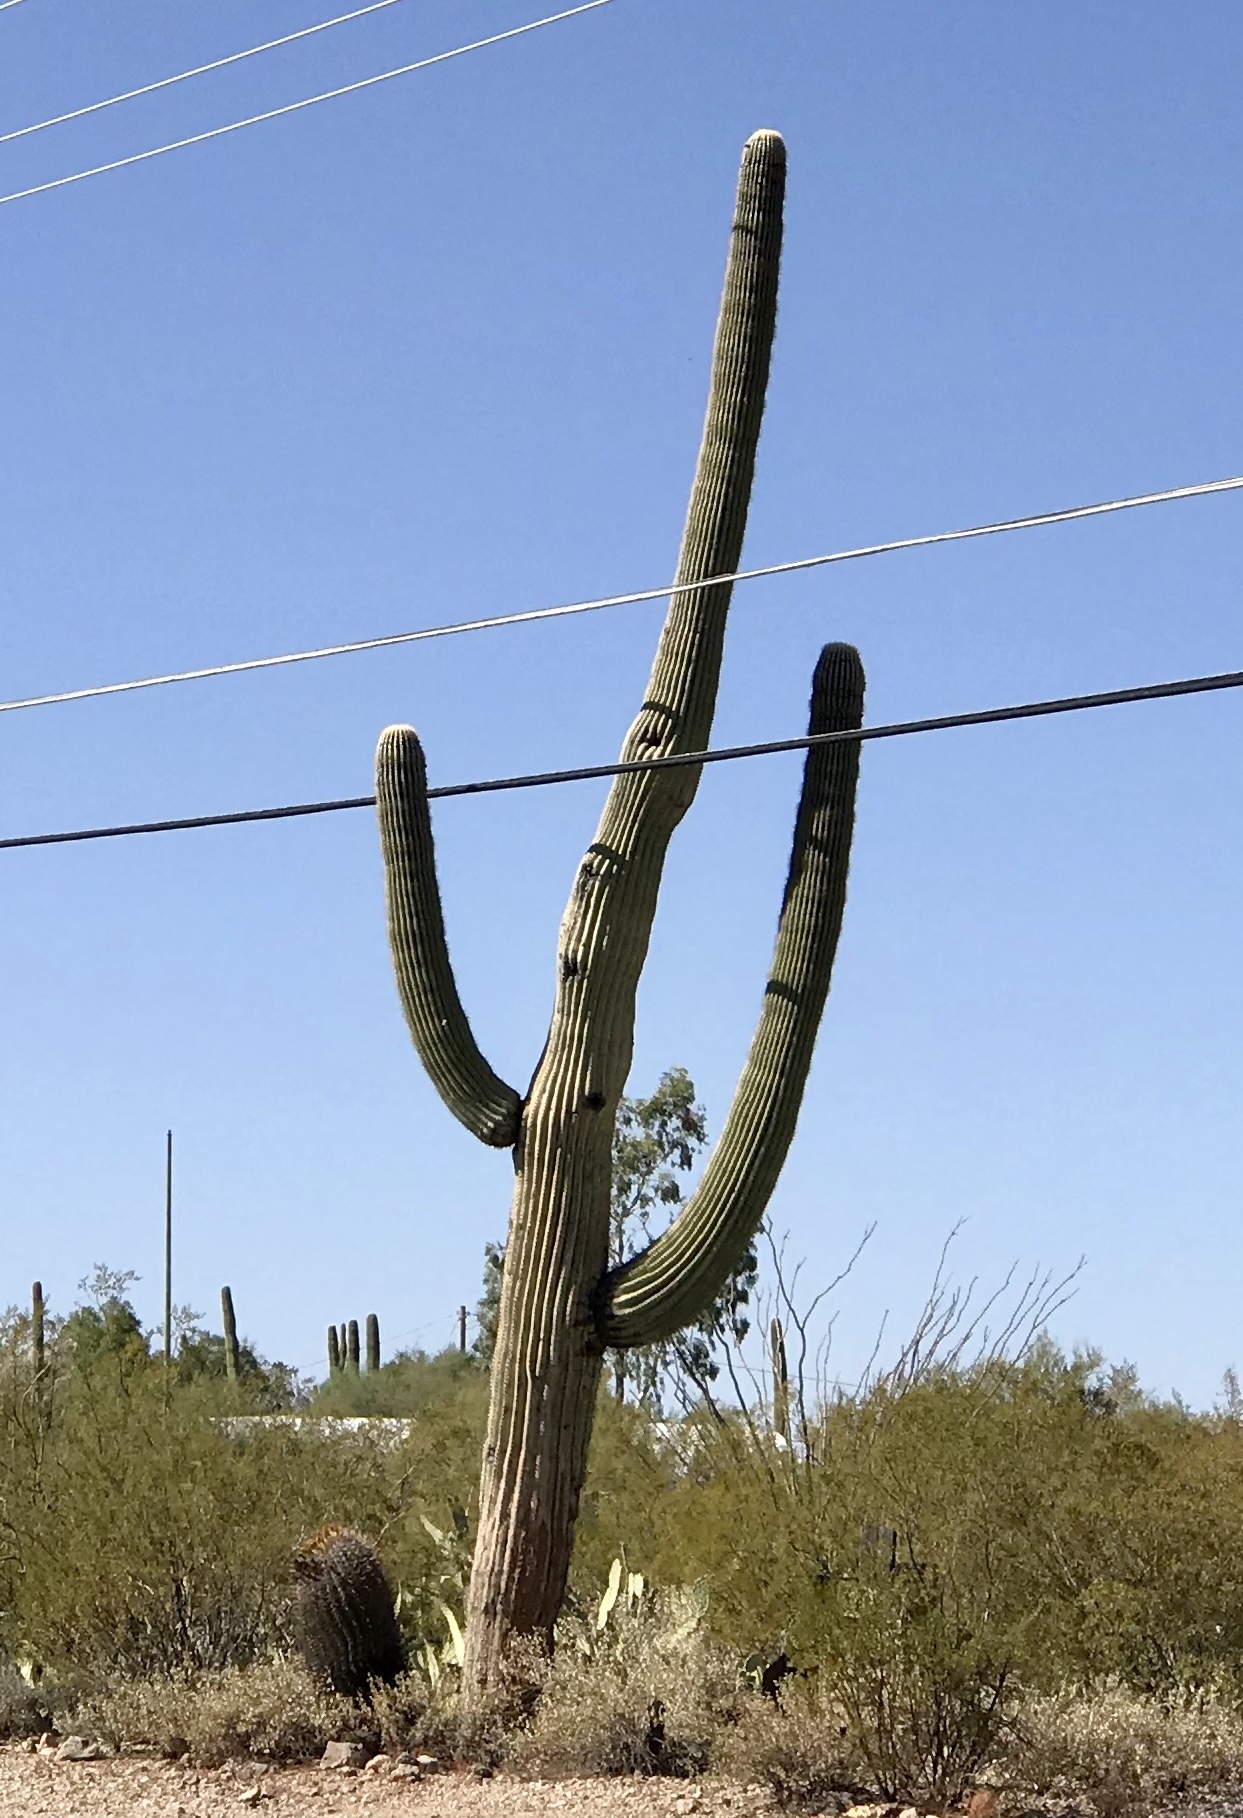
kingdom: Plantae
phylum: Tracheophyta
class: Magnoliopsida
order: Caryophyllales
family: Cactaceae
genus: Carnegiea
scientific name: Carnegiea gigantea
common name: Saguaro
